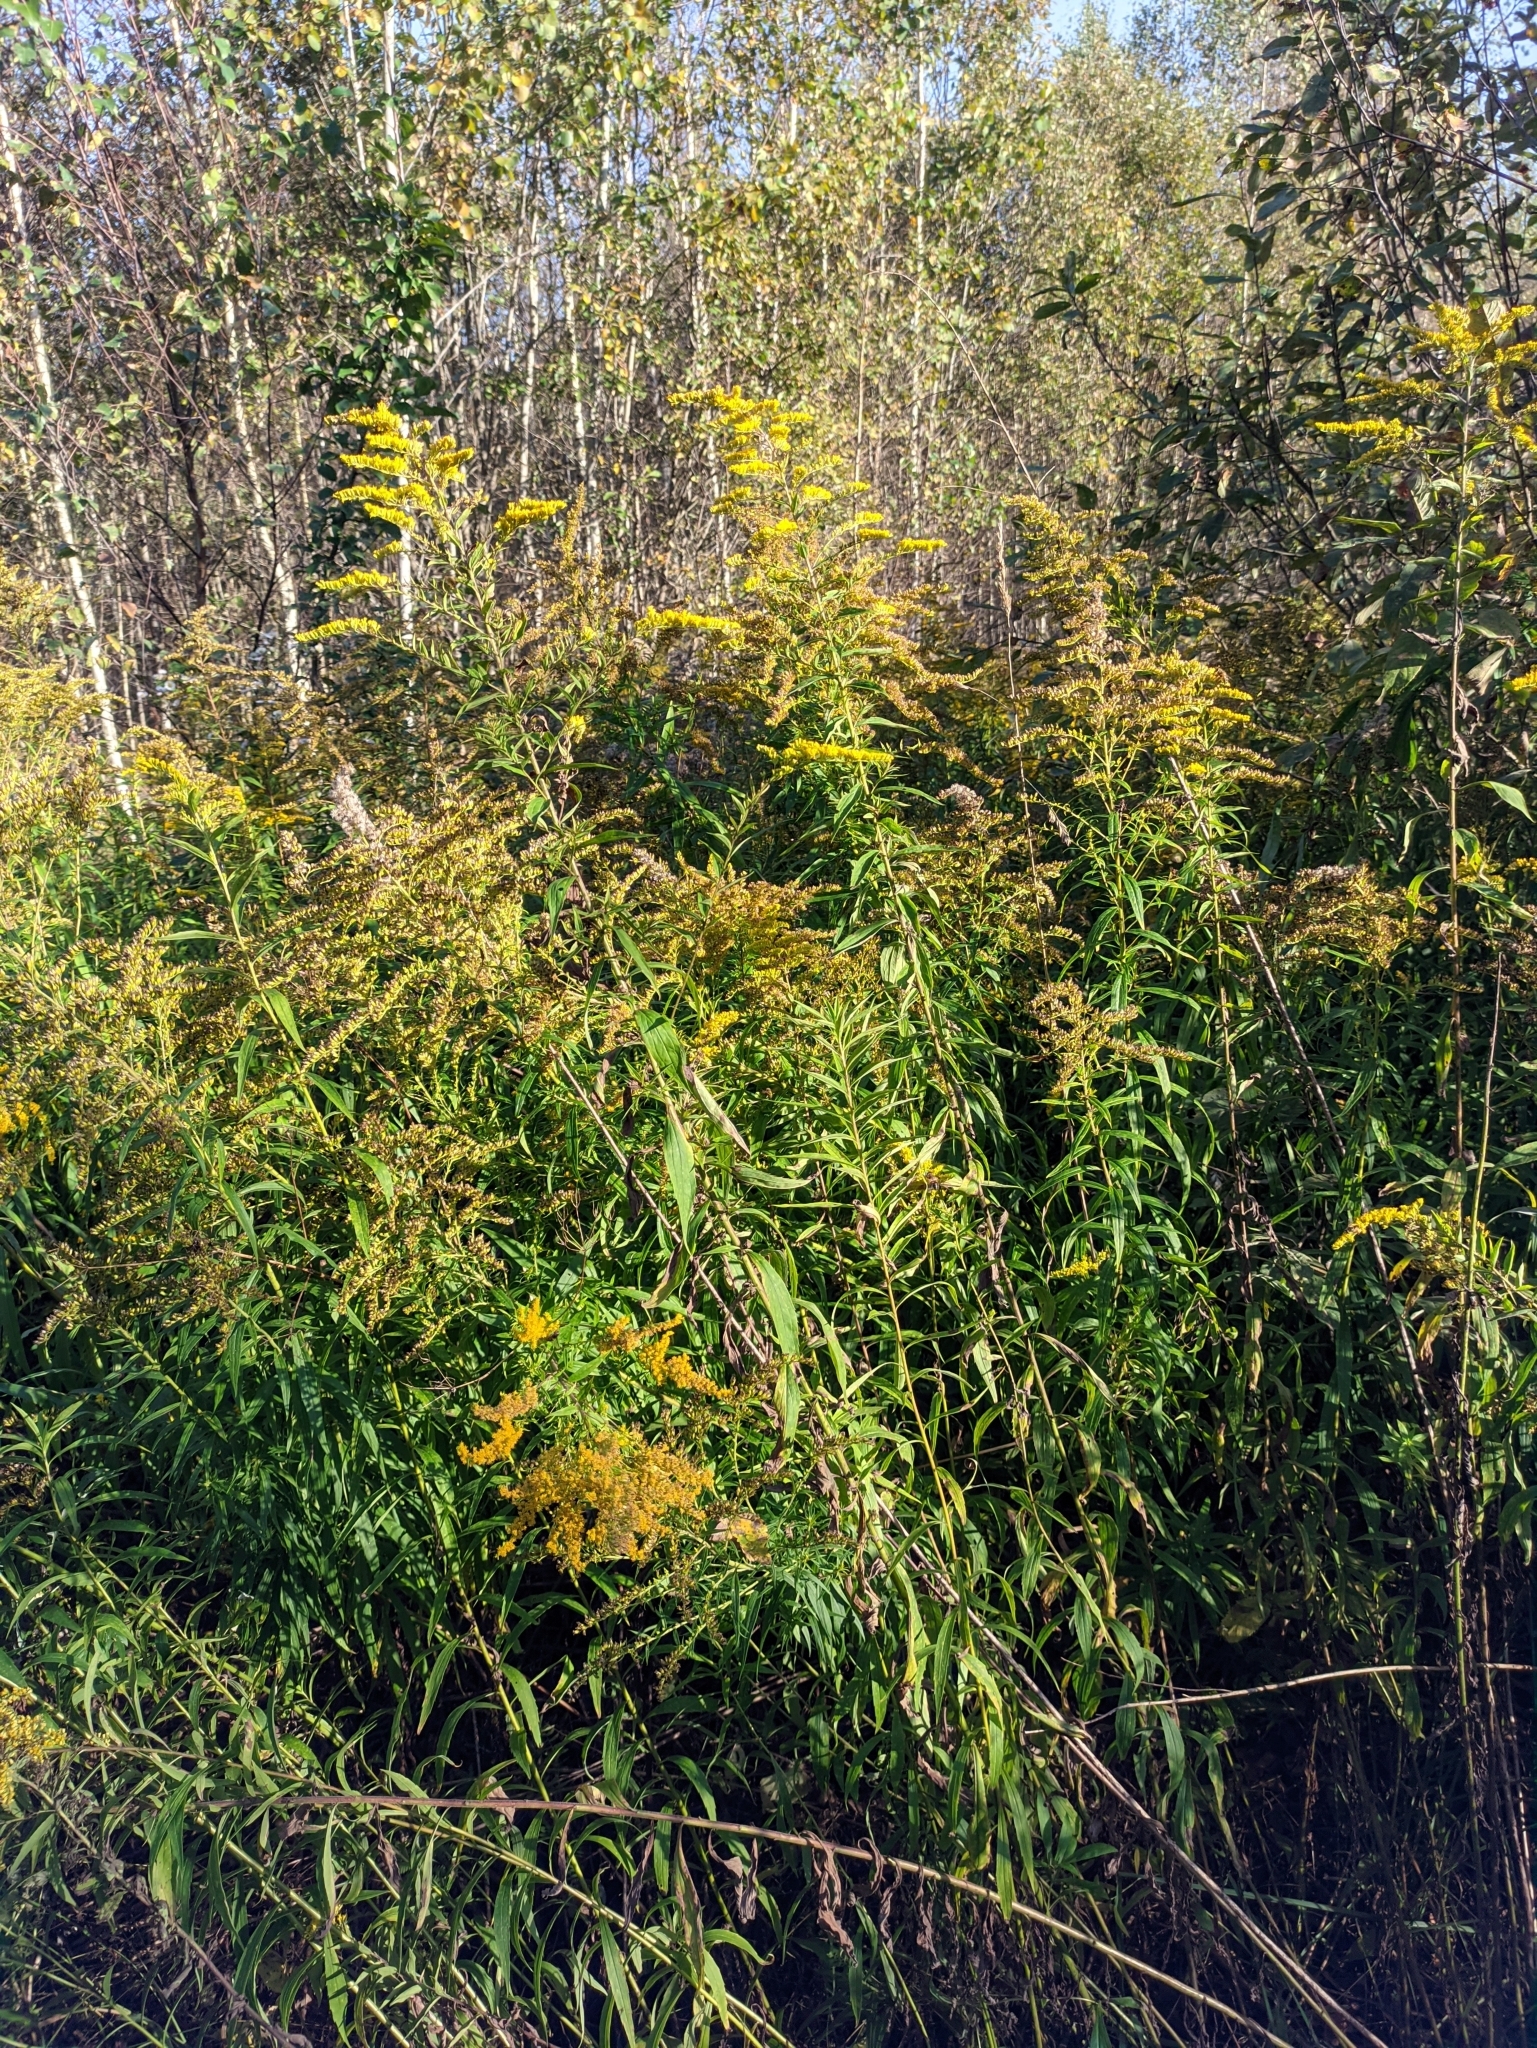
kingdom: Plantae
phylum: Tracheophyta
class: Magnoliopsida
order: Asterales
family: Asteraceae
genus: Solidago
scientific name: Solidago canadensis
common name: Canada goldenrod
